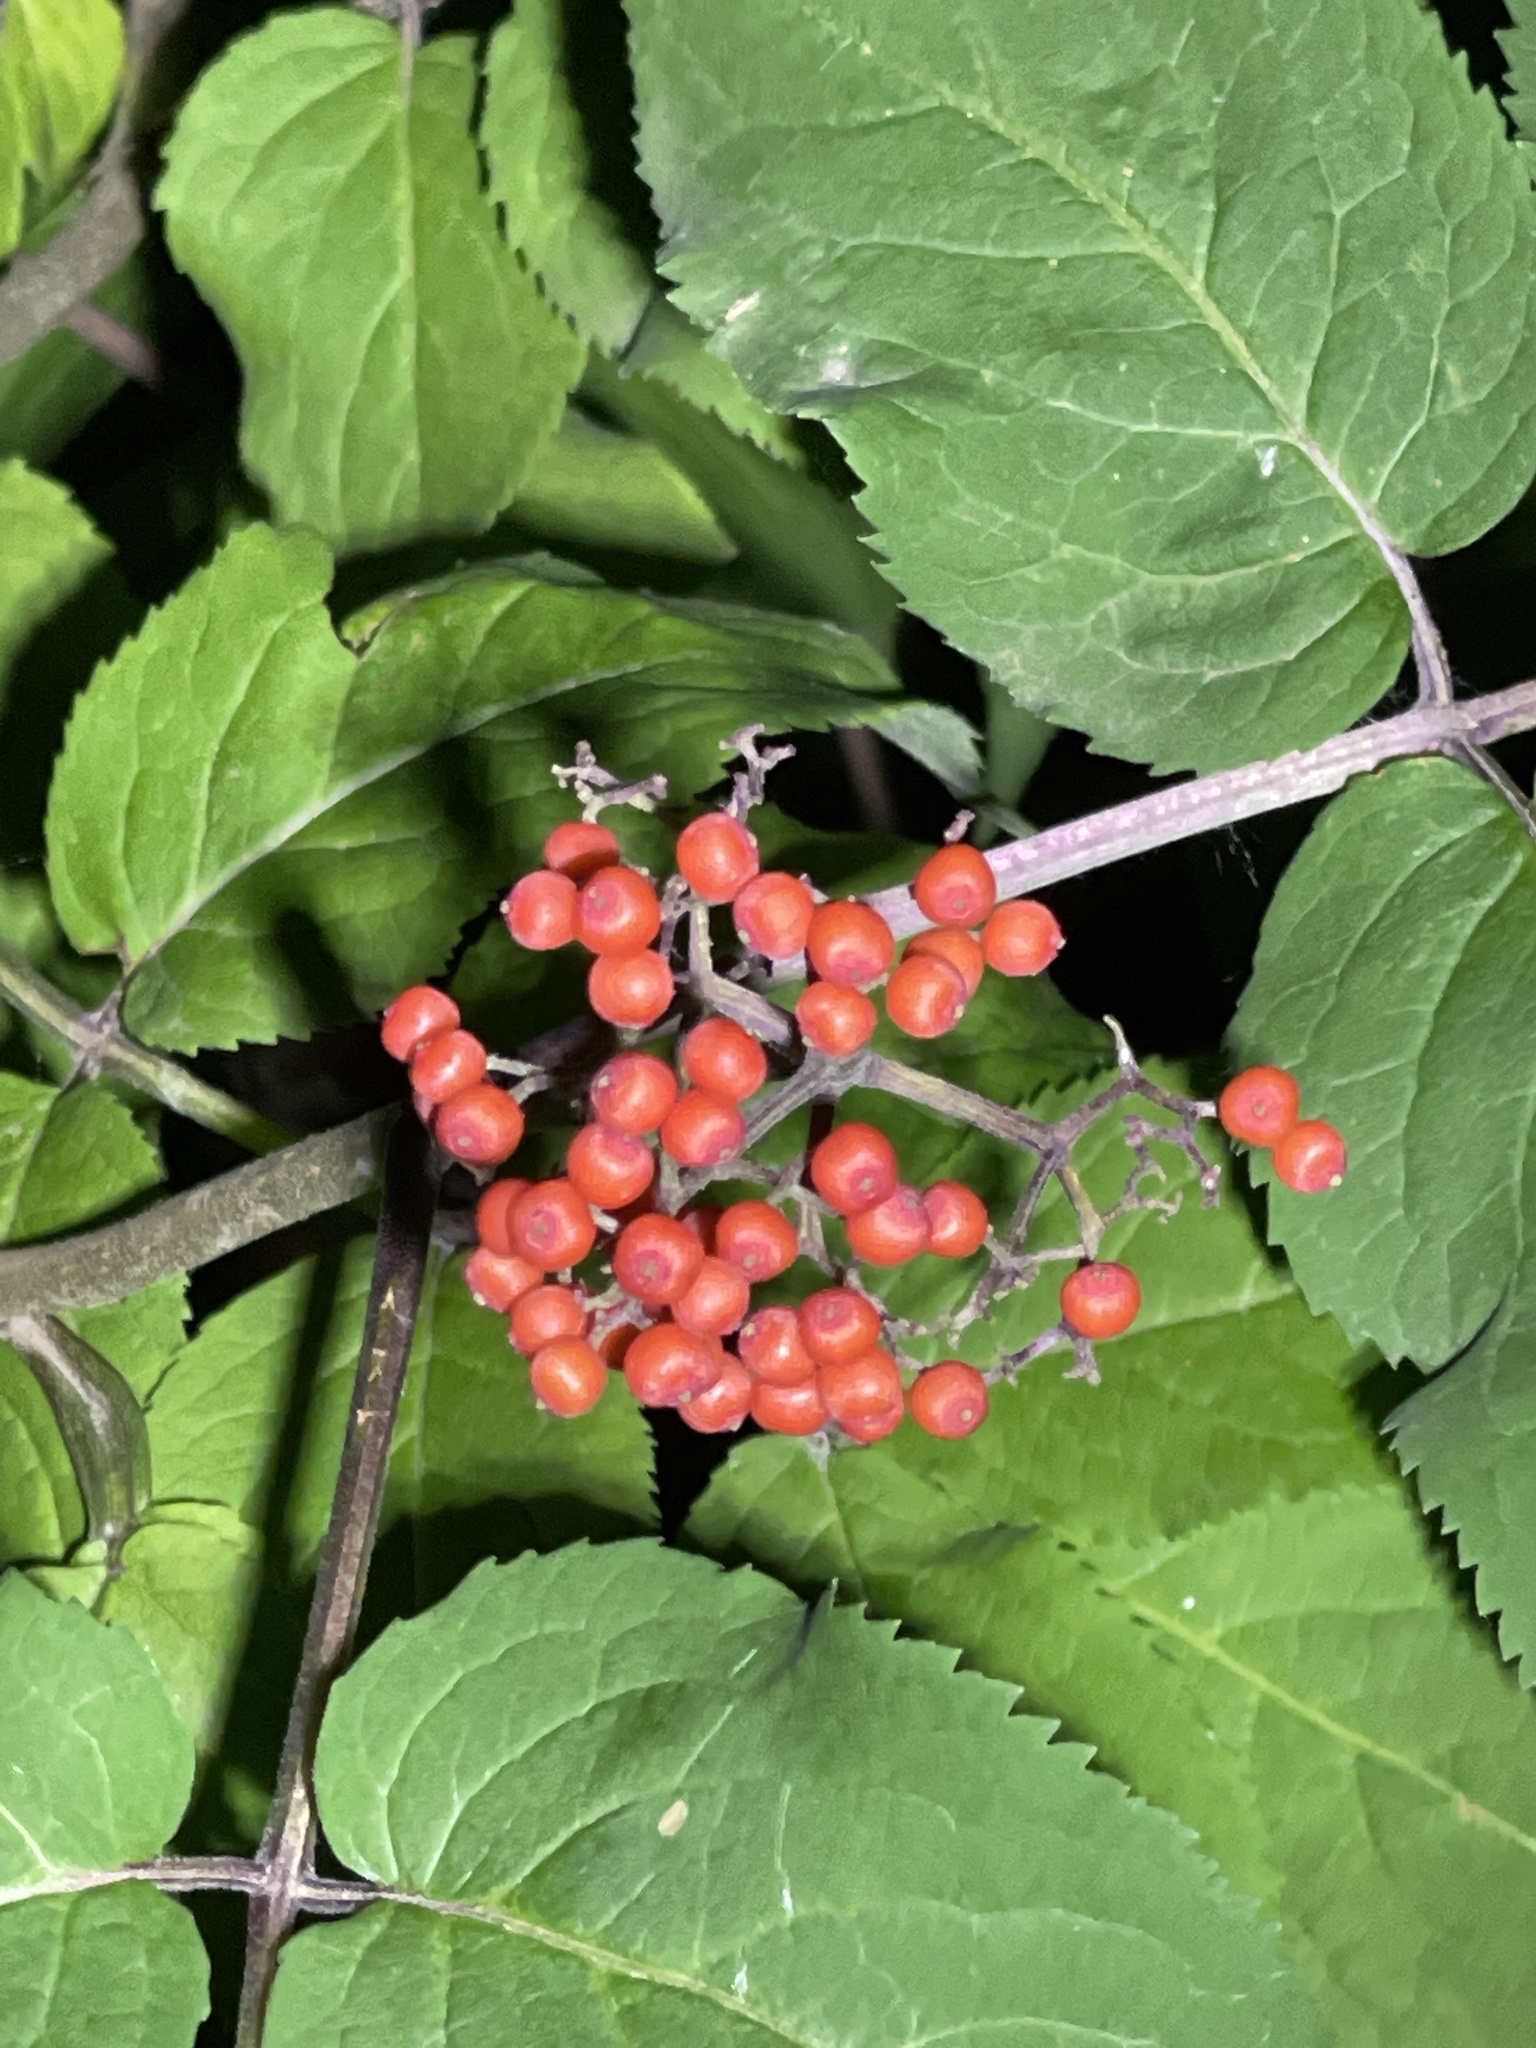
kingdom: Plantae
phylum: Tracheophyta
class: Magnoliopsida
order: Dipsacales
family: Viburnaceae
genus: Sambucus
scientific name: Sambucus racemosa
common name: Red-berried elder
